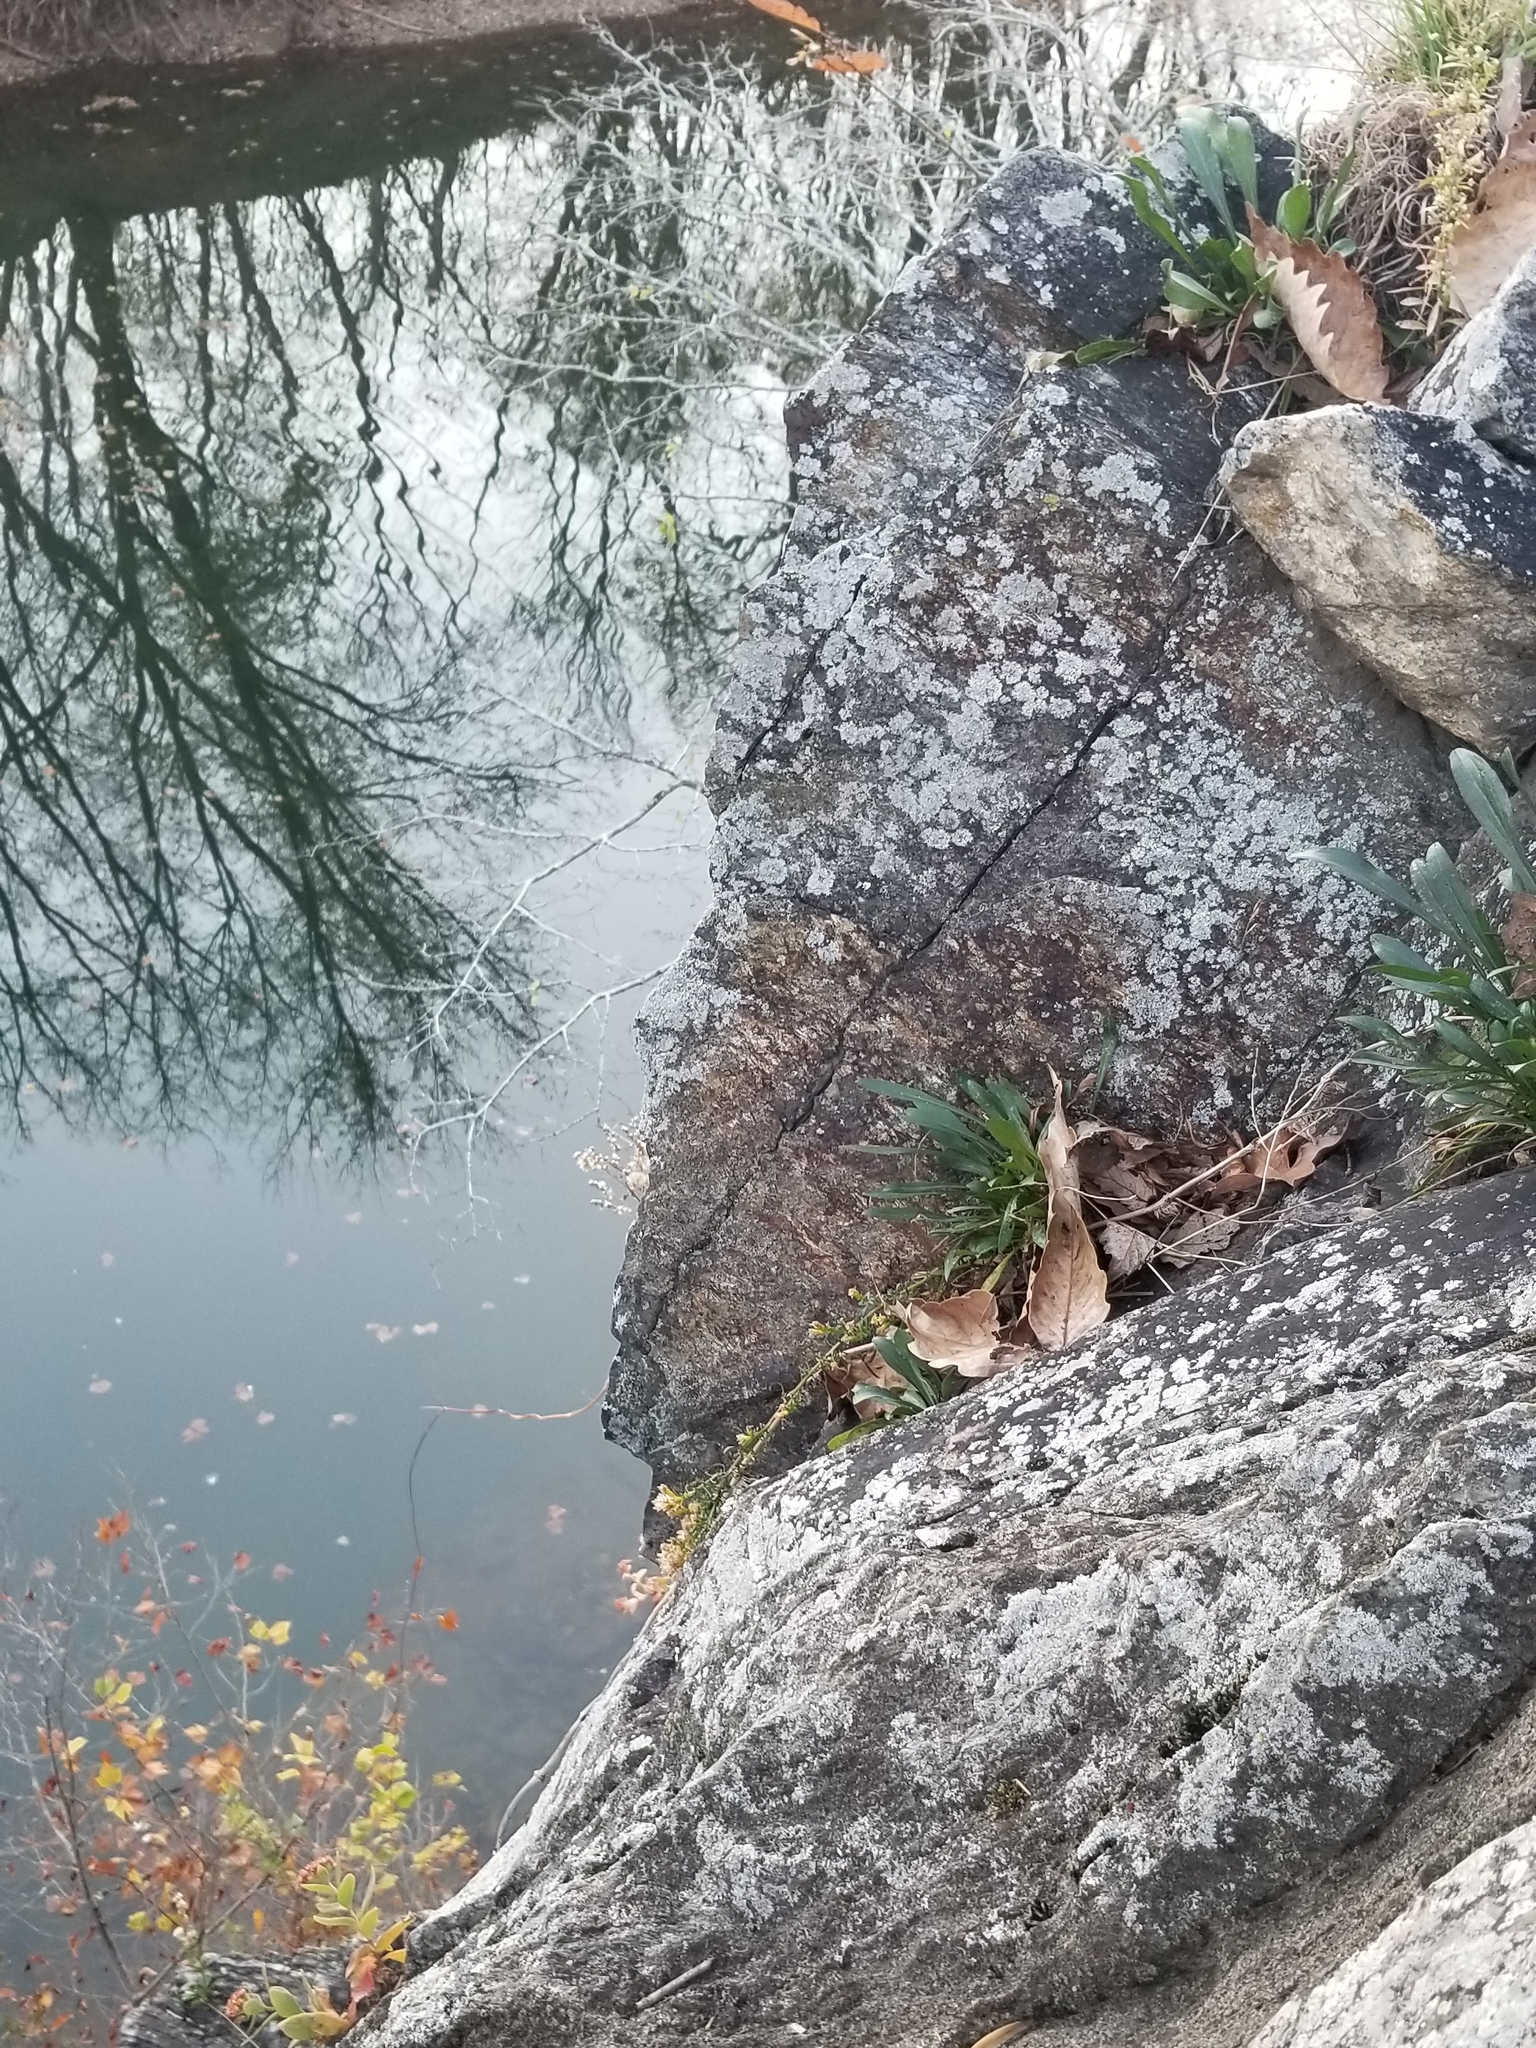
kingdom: Plantae
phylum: Tracheophyta
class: Magnoliopsida
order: Asterales
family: Asteraceae
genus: Solidago
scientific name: Solidago racemosa
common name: Lake ontario goldenrod
